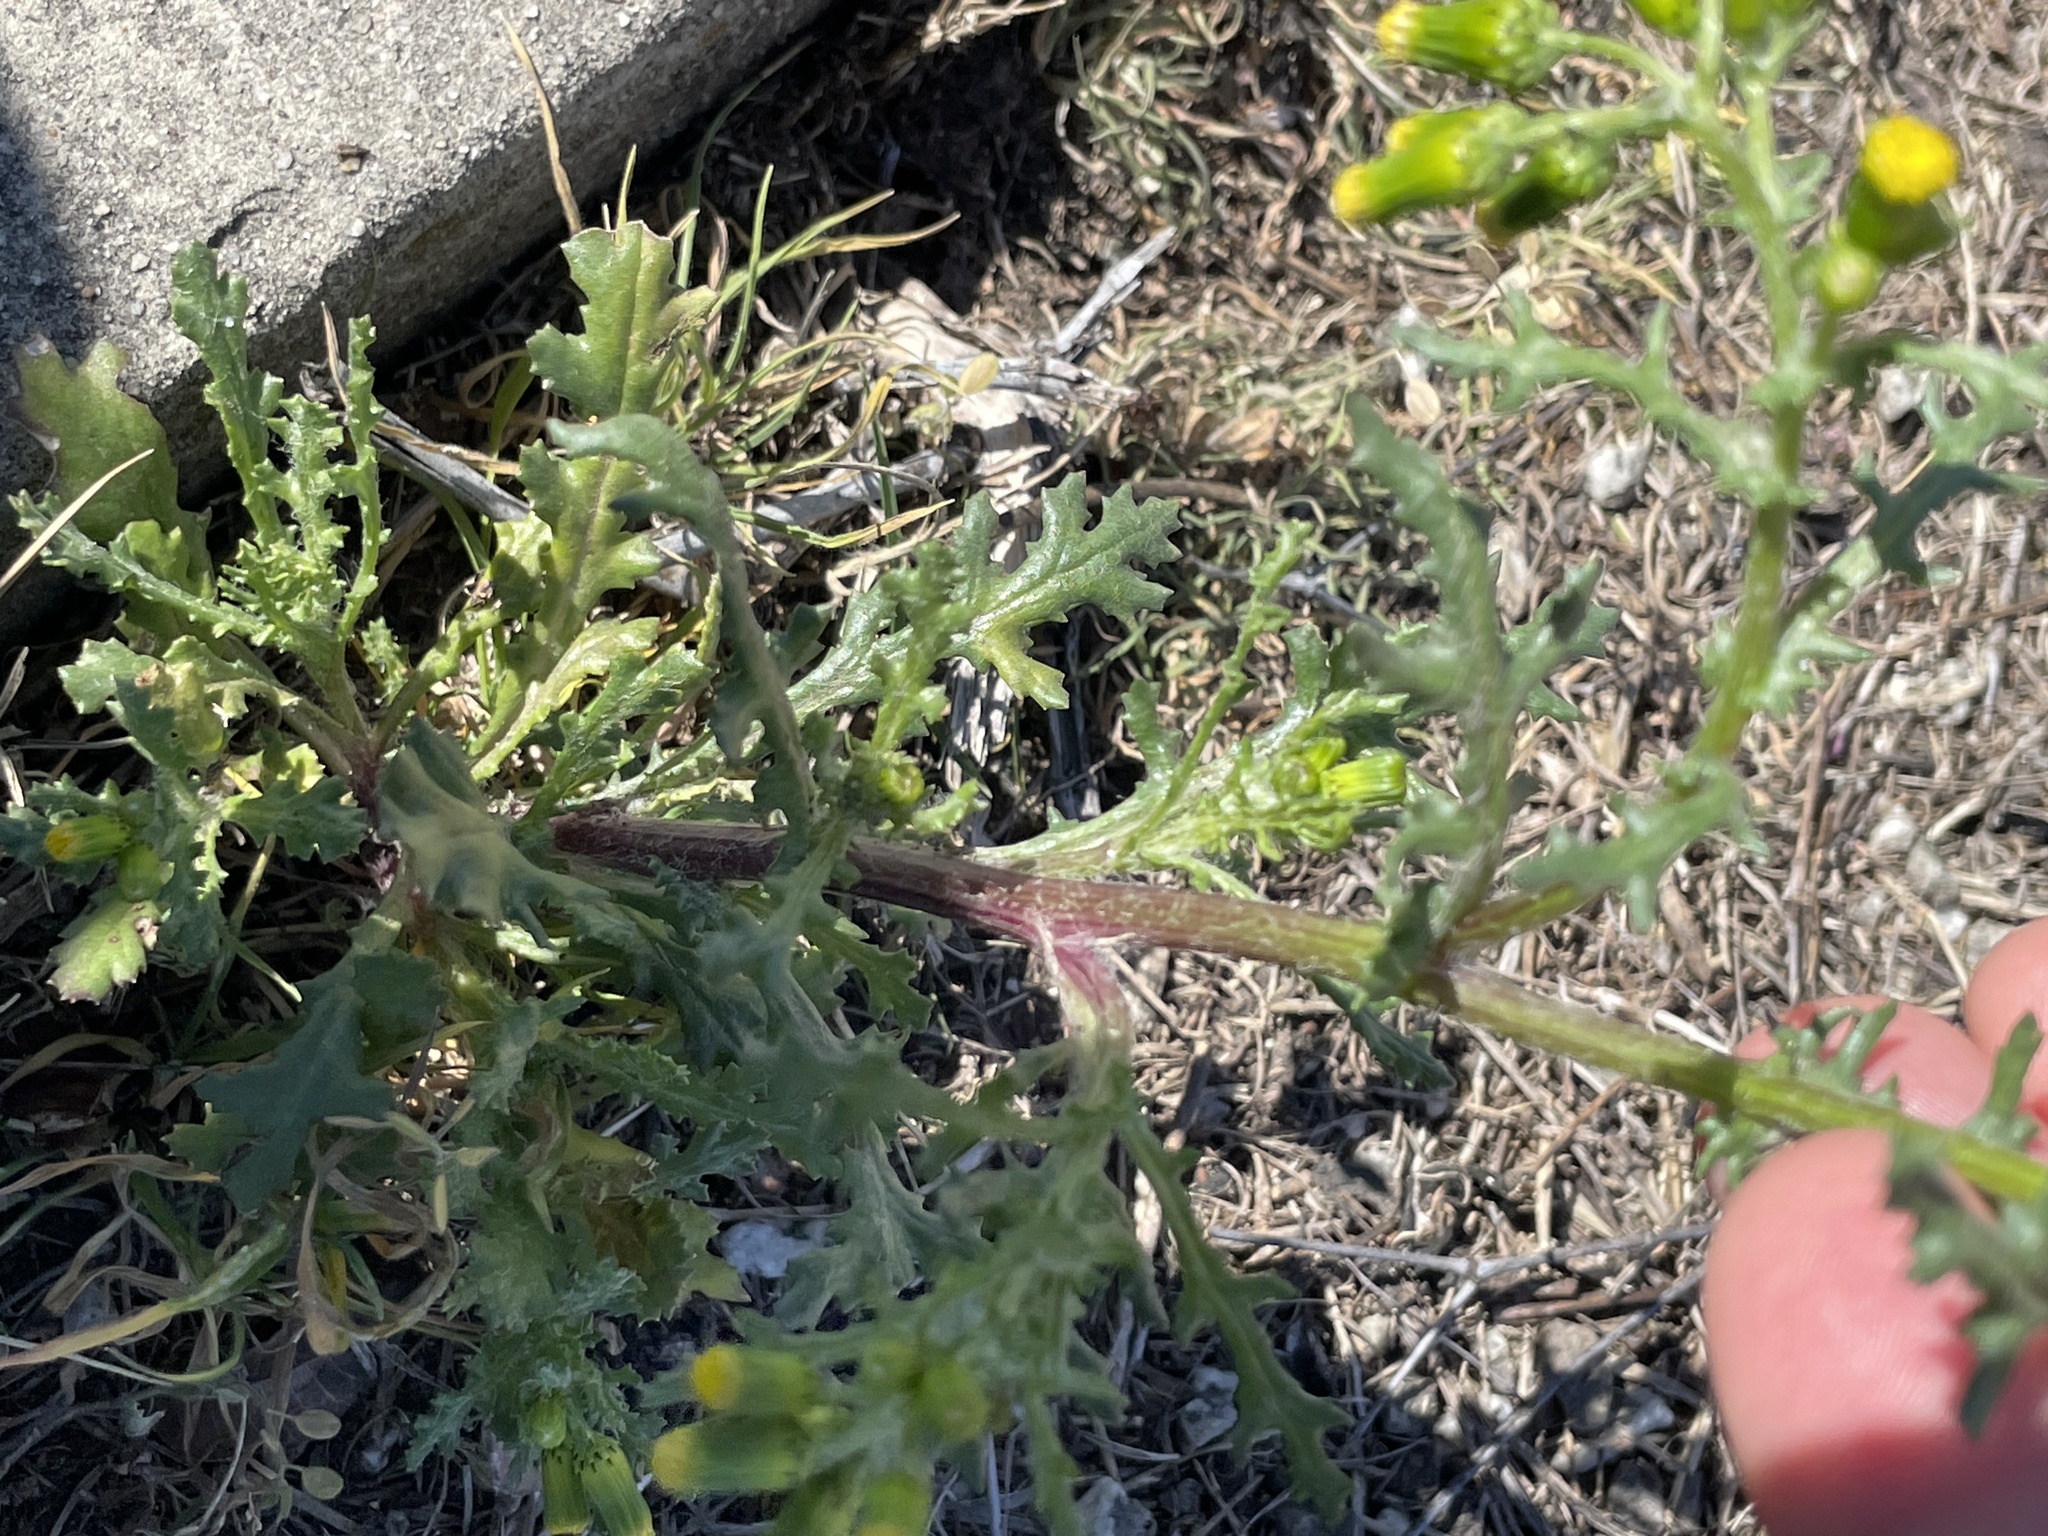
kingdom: Plantae
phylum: Tracheophyta
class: Magnoliopsida
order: Asterales
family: Asteraceae
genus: Senecio
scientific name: Senecio vulgaris
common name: Old-man-in-the-spring
